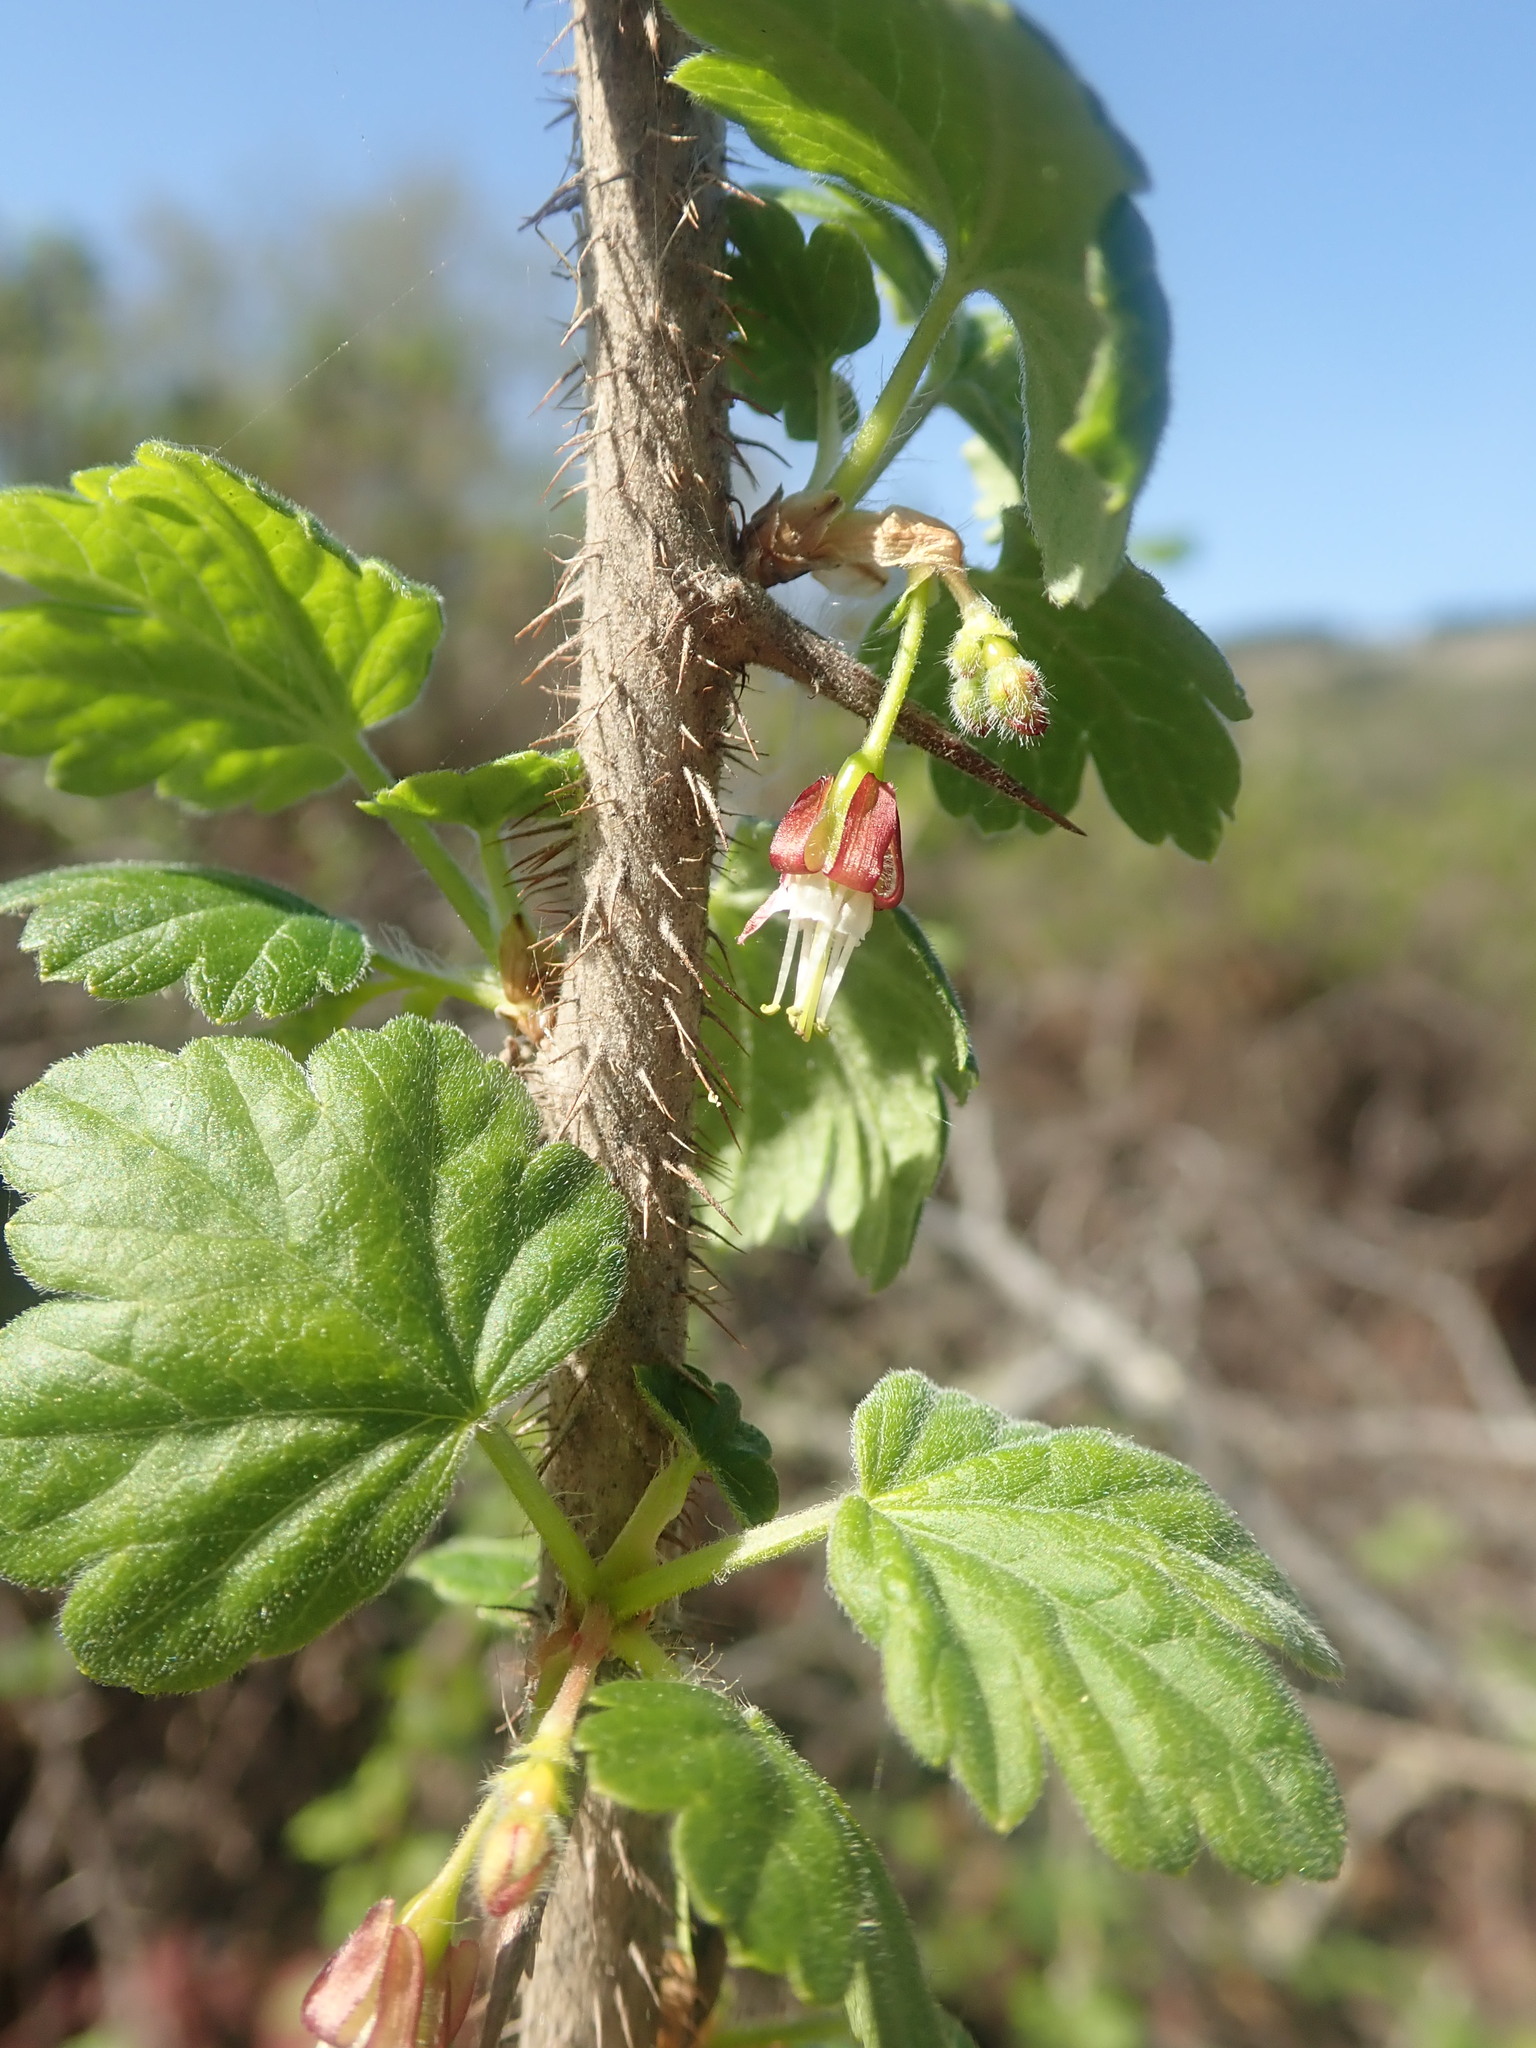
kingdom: Plantae
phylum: Tracheophyta
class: Magnoliopsida
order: Saxifragales
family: Grossulariaceae
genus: Ribes
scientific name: Ribes divaricatum
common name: Wild black gooseberry
